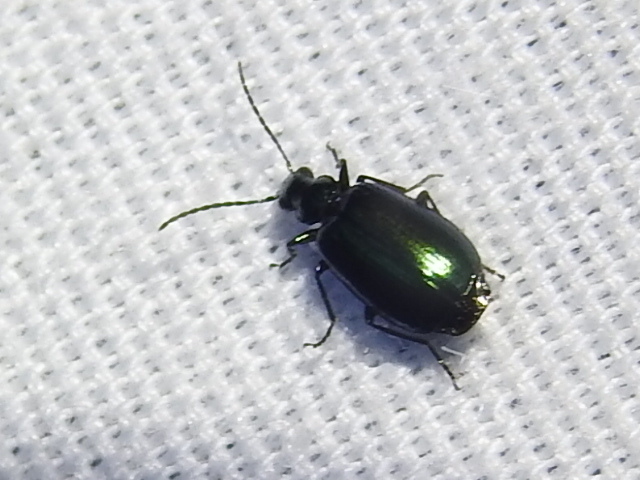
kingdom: Animalia
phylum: Arthropoda
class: Insecta
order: Coleoptera
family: Carabidae
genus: Lebia
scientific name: Lebia viridis
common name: Flower lebia beetle
